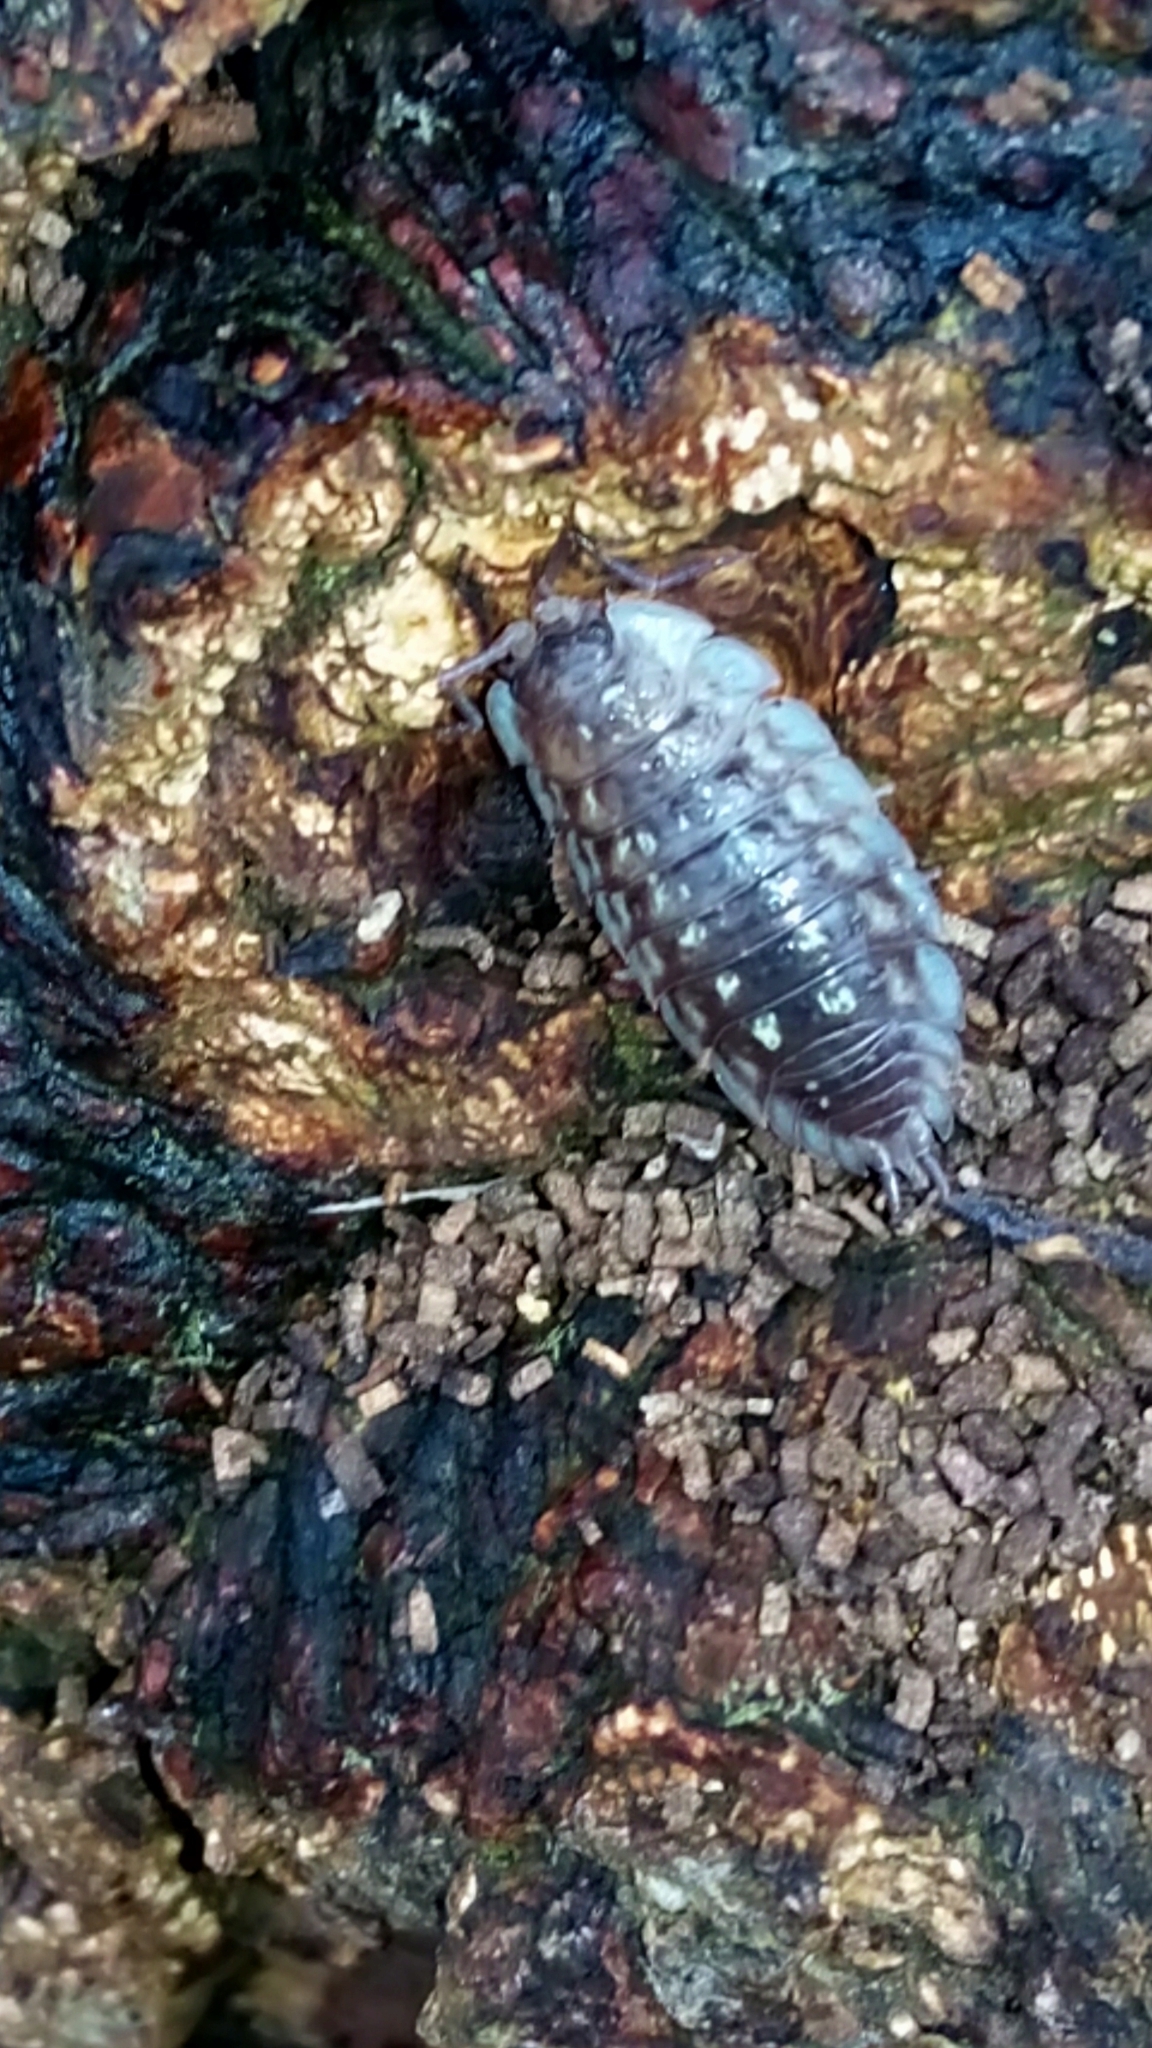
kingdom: Animalia
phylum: Arthropoda
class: Malacostraca
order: Isopoda
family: Oniscidae
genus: Oniscus
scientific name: Oniscus asellus
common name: Common shiny woodlouse
